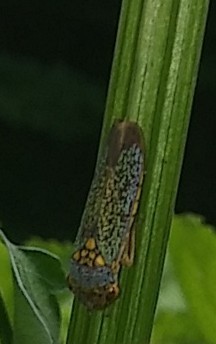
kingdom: Animalia
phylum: Arthropoda
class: Insecta
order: Hemiptera
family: Cicadellidae
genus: Oncometopia
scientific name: Oncometopia orbona
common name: Broad-headed sharpshooter
